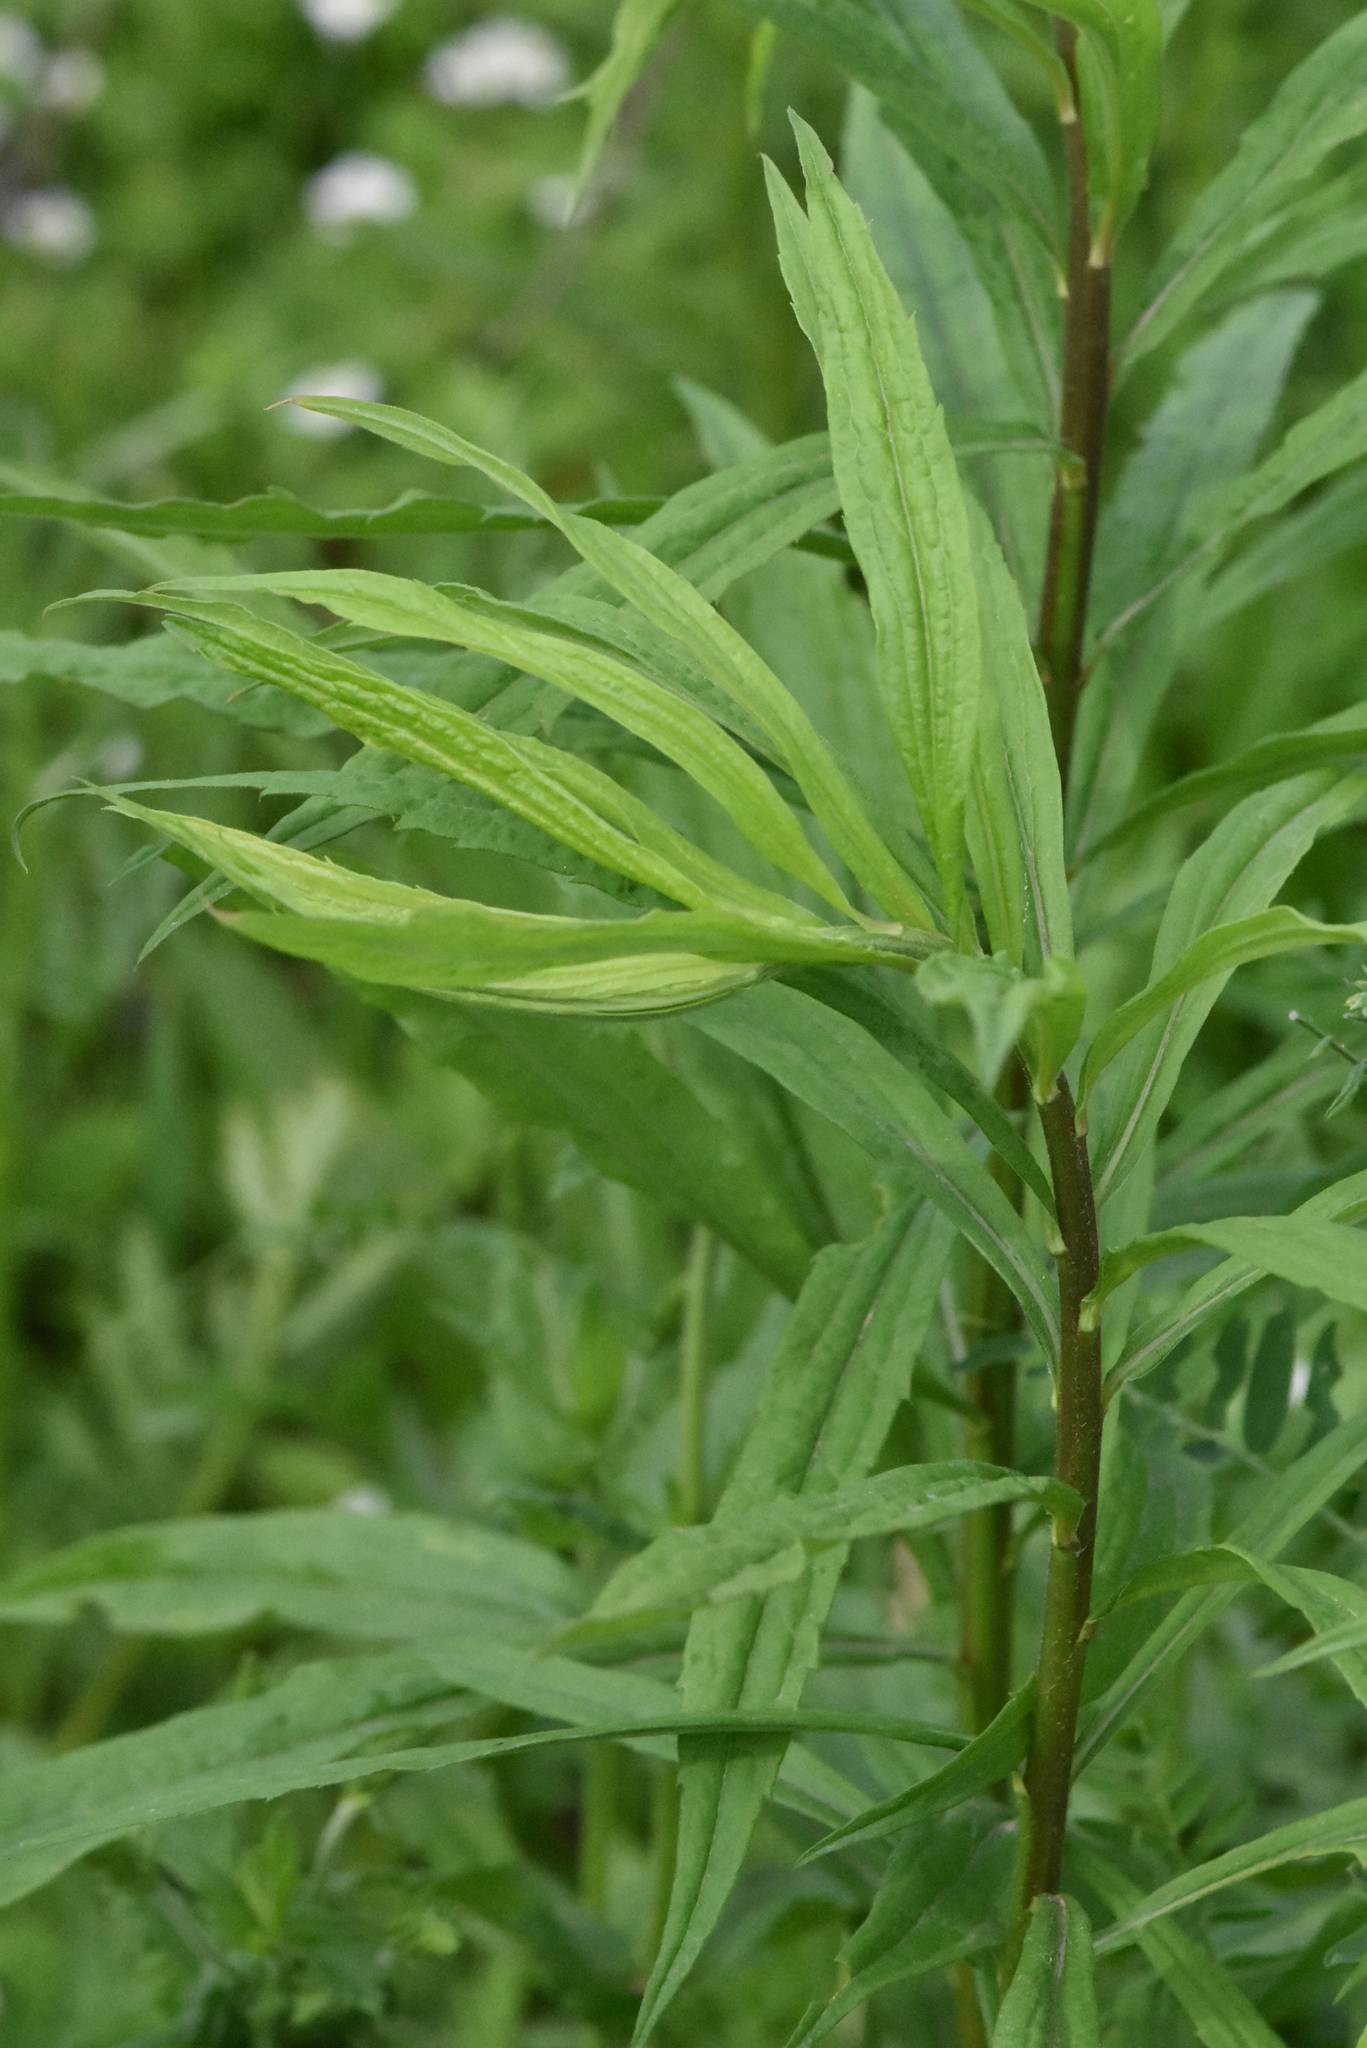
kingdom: Plantae
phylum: Tracheophyta
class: Magnoliopsida
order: Asterales
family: Asteraceae
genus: Solidago
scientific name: Solidago canadensis
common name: Canada goldenrod
